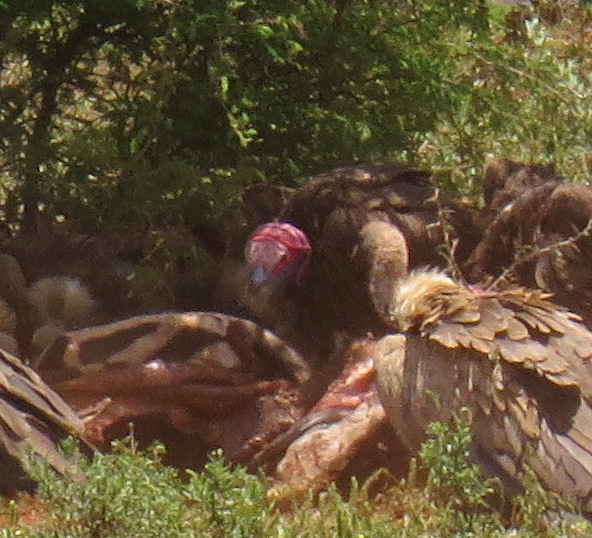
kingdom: Animalia
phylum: Chordata
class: Aves
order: Accipitriformes
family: Accipitridae
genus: Torgos
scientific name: Torgos tracheliotos
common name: Lappet-faced vulture
